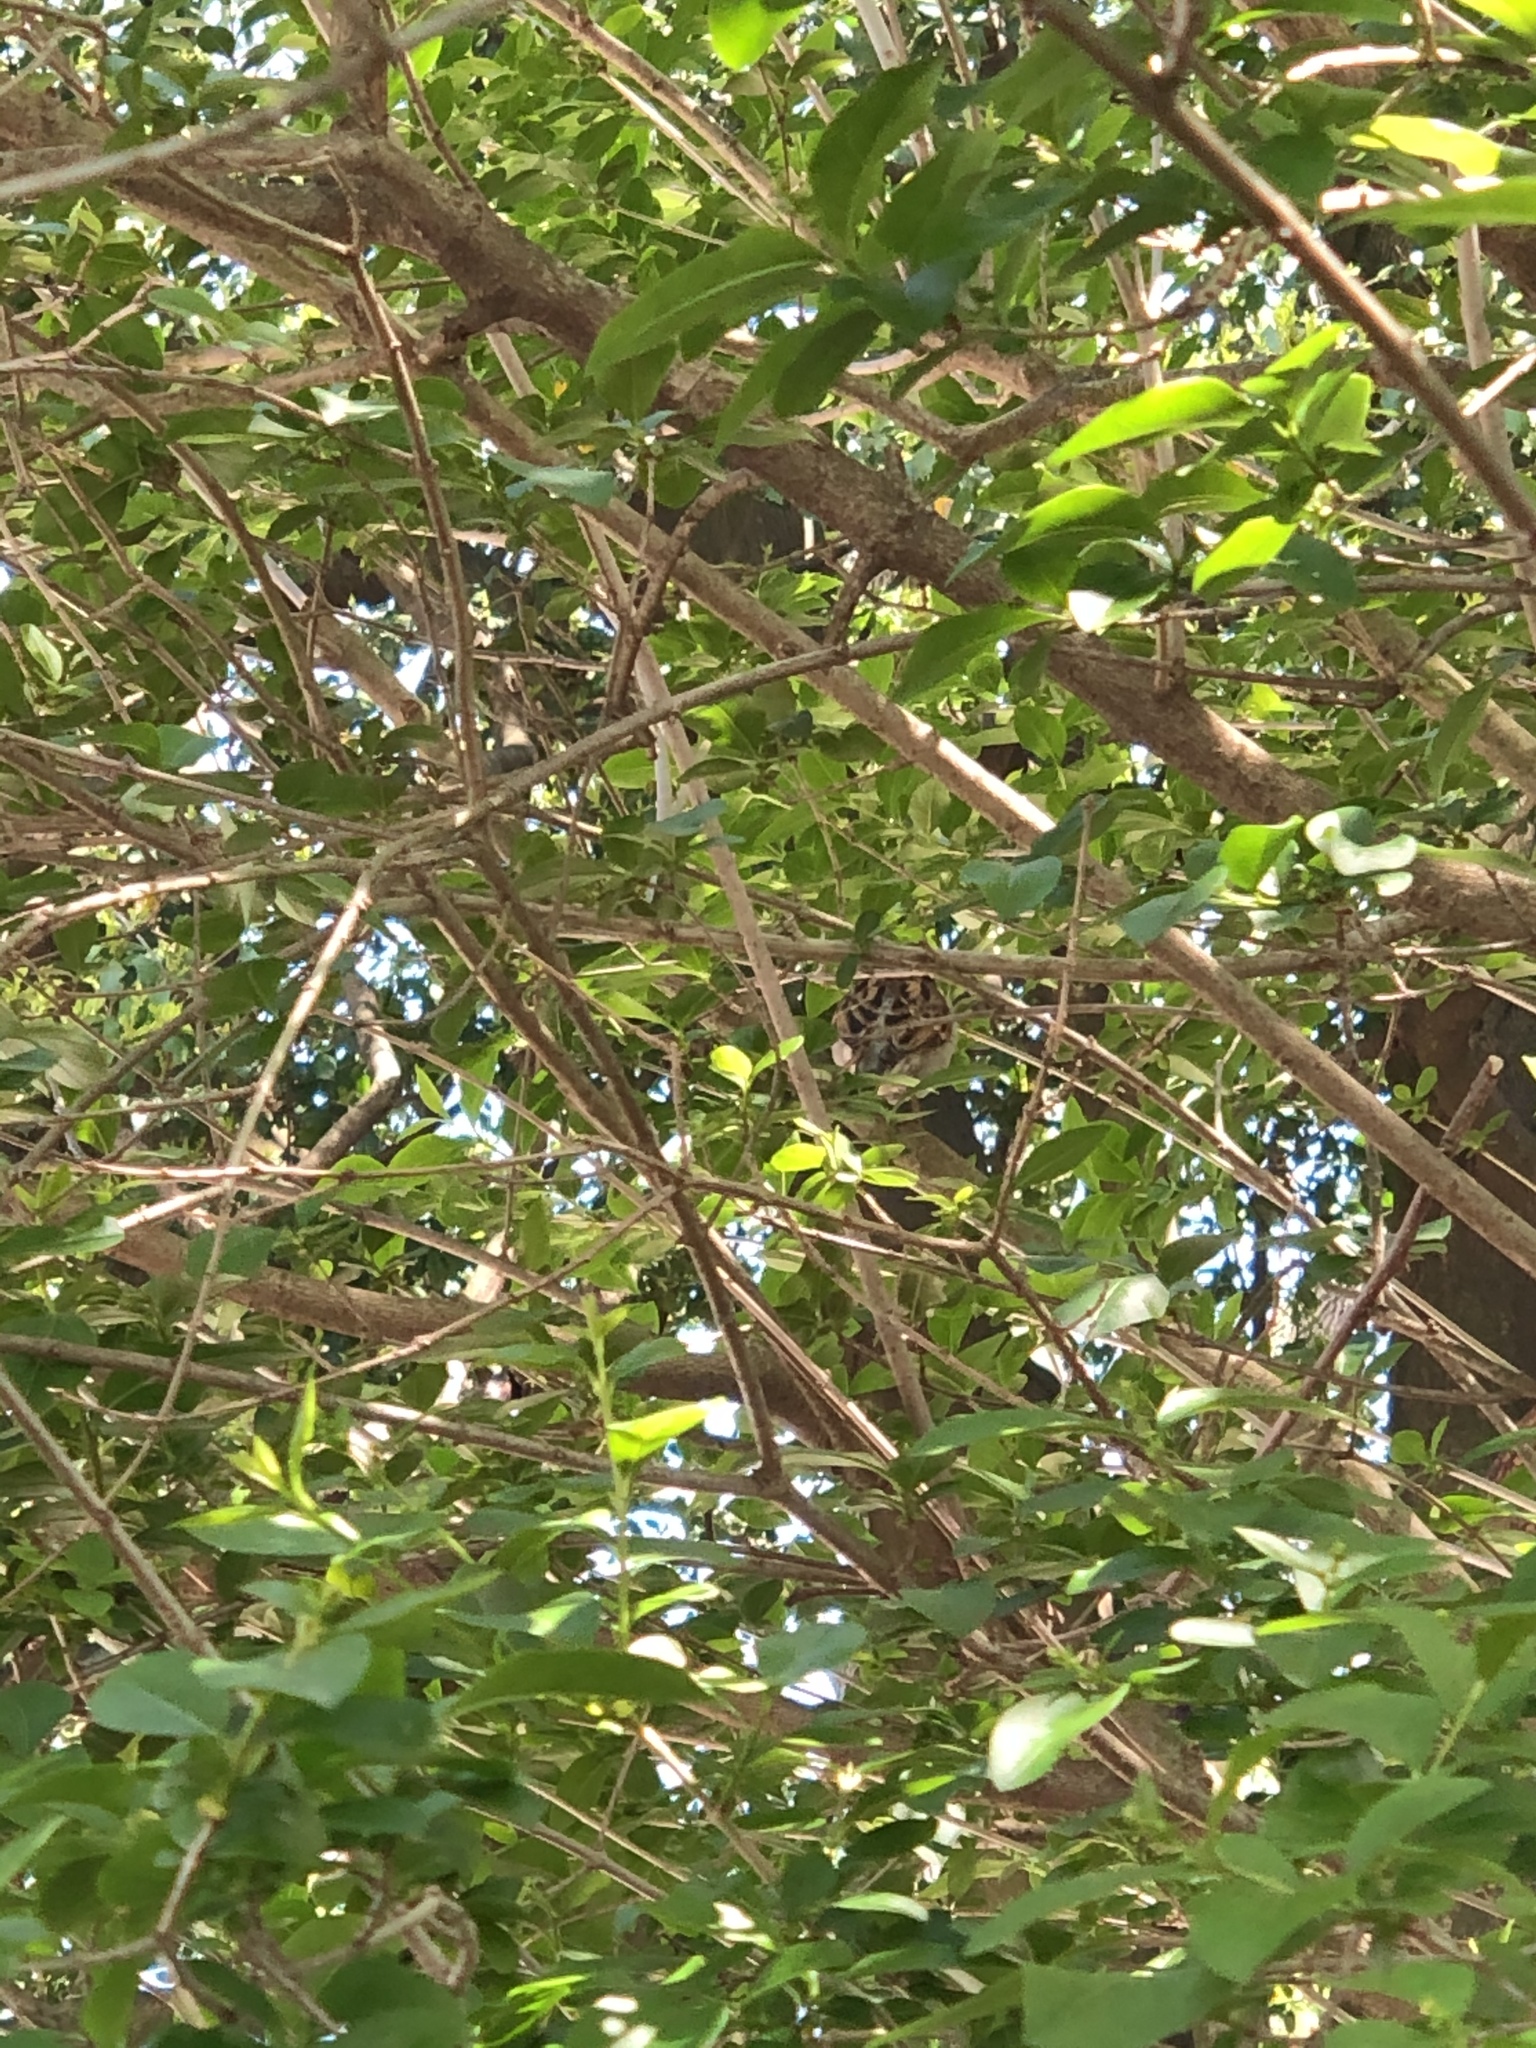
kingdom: Animalia
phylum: Chordata
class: Aves
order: Passeriformes
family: Passeridae
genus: Passer
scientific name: Passer domesticus
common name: House sparrow
